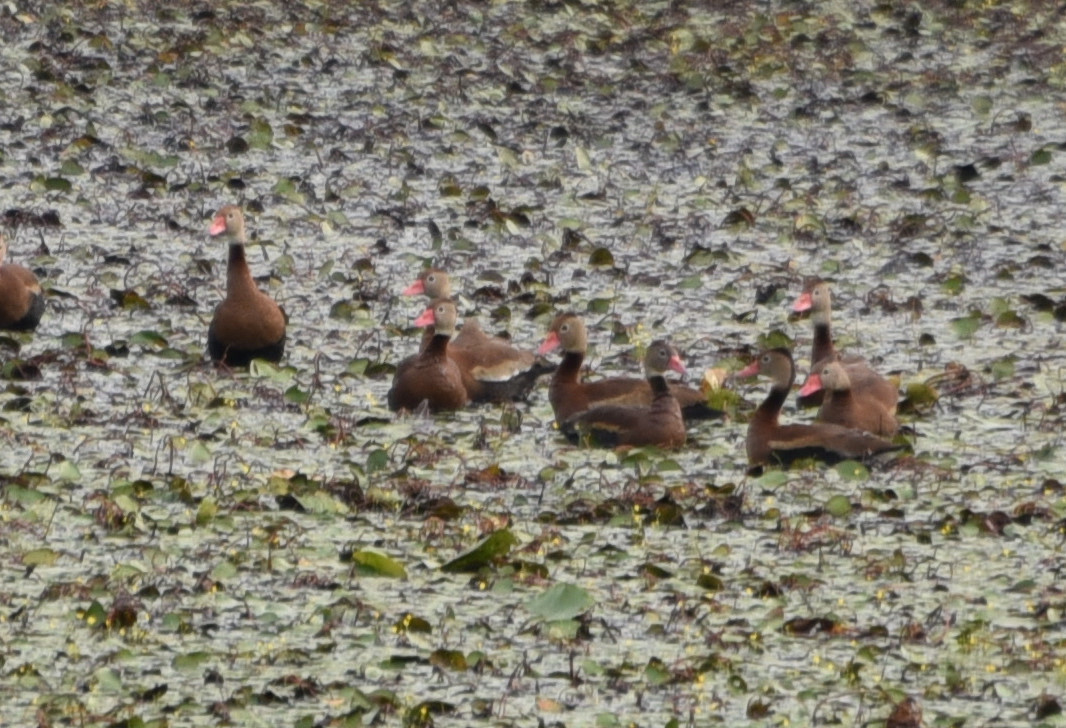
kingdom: Animalia
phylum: Chordata
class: Aves
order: Anseriformes
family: Anatidae
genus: Dendrocygna
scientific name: Dendrocygna autumnalis
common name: Black-bellied whistling duck
